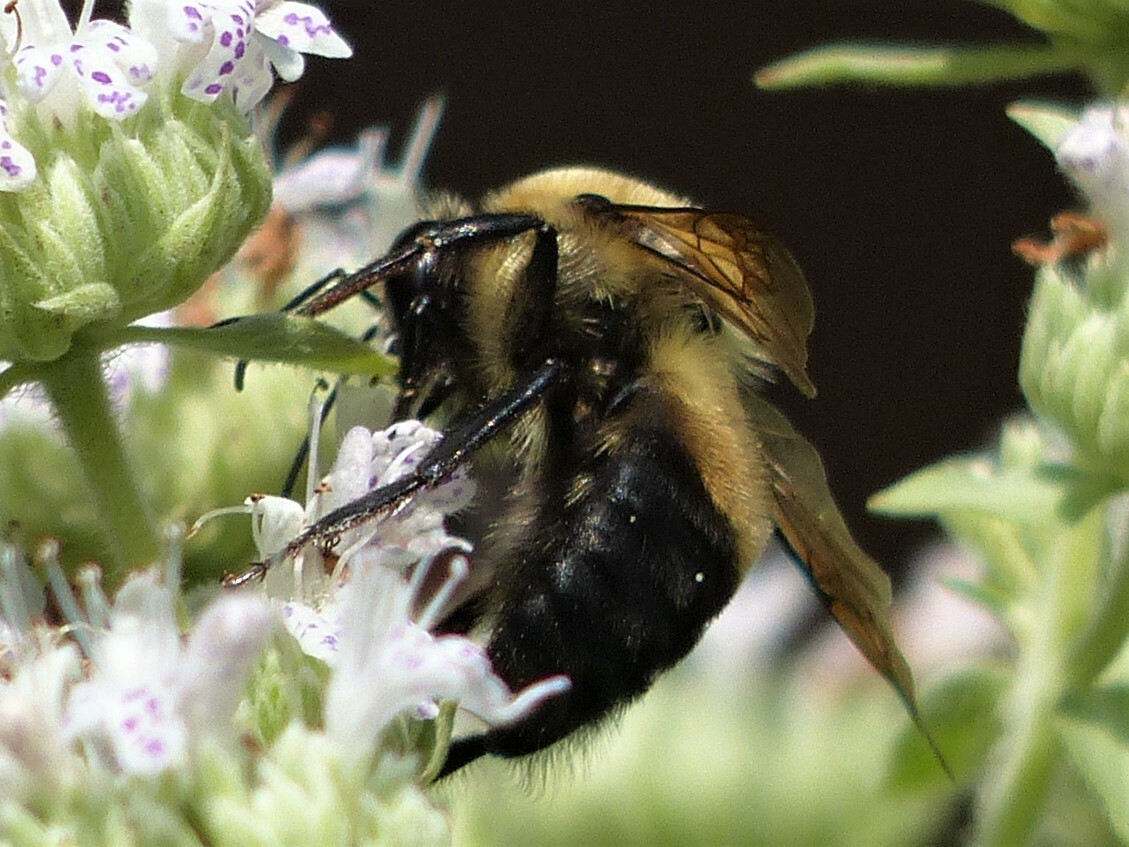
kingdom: Animalia
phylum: Arthropoda
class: Insecta
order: Hymenoptera
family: Apidae
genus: Bombus
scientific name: Bombus griseocollis
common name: Brown-belted bumble bee
